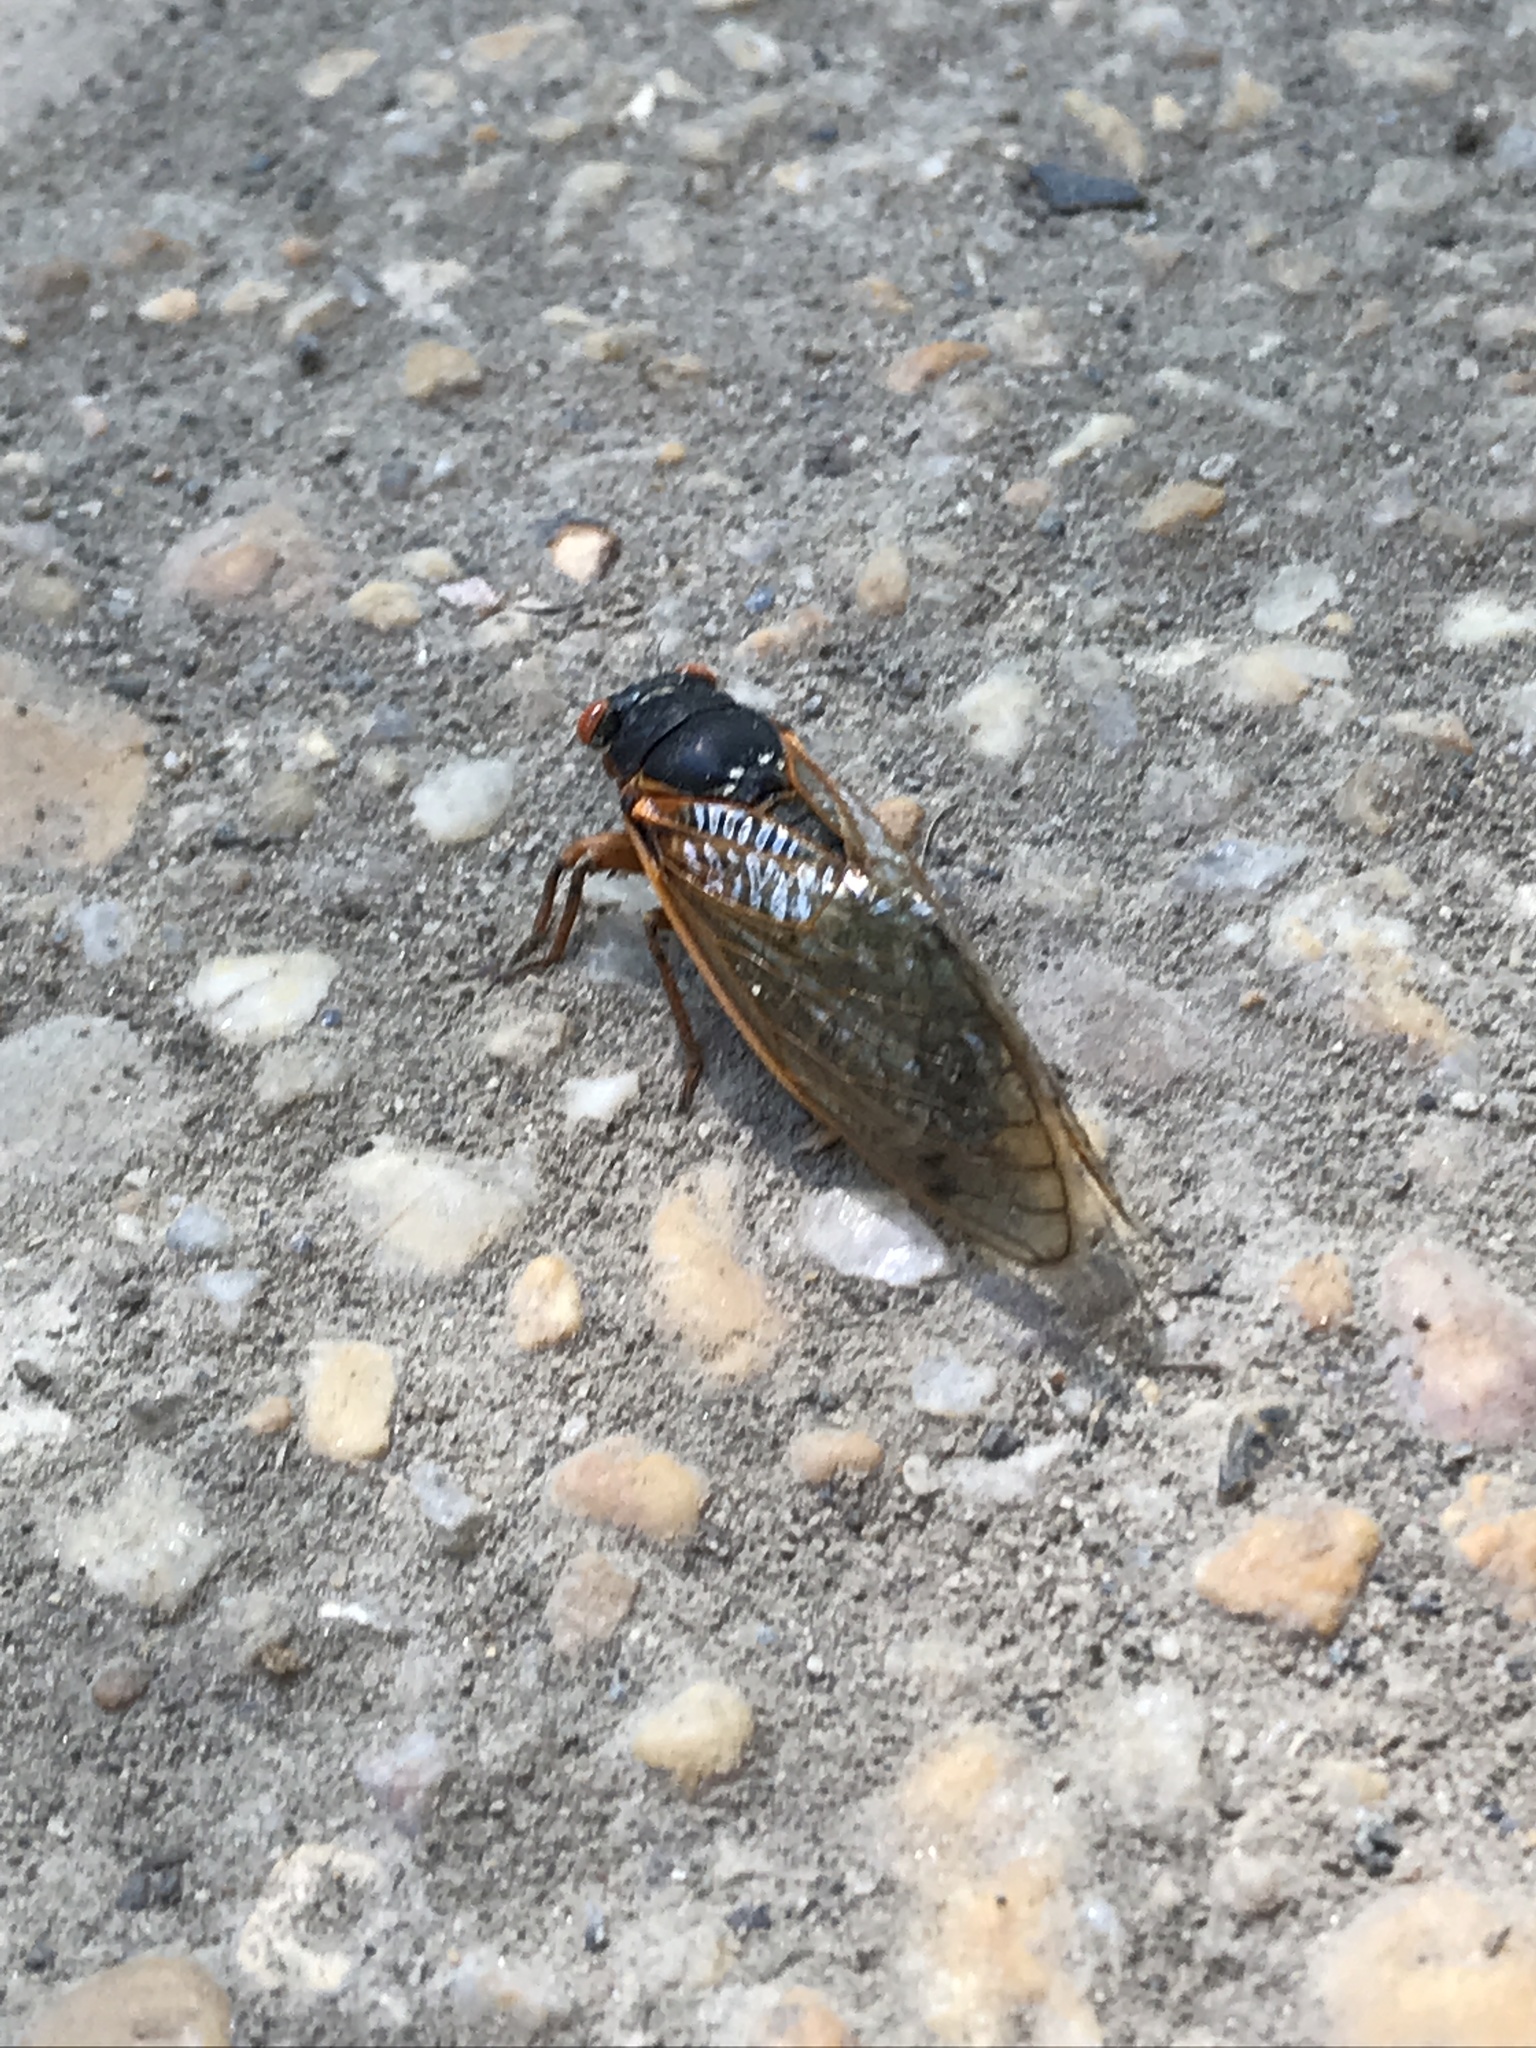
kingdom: Animalia
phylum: Arthropoda
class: Insecta
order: Hemiptera
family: Cicadidae
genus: Magicicada
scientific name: Magicicada septendecim
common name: Periodical cicada
